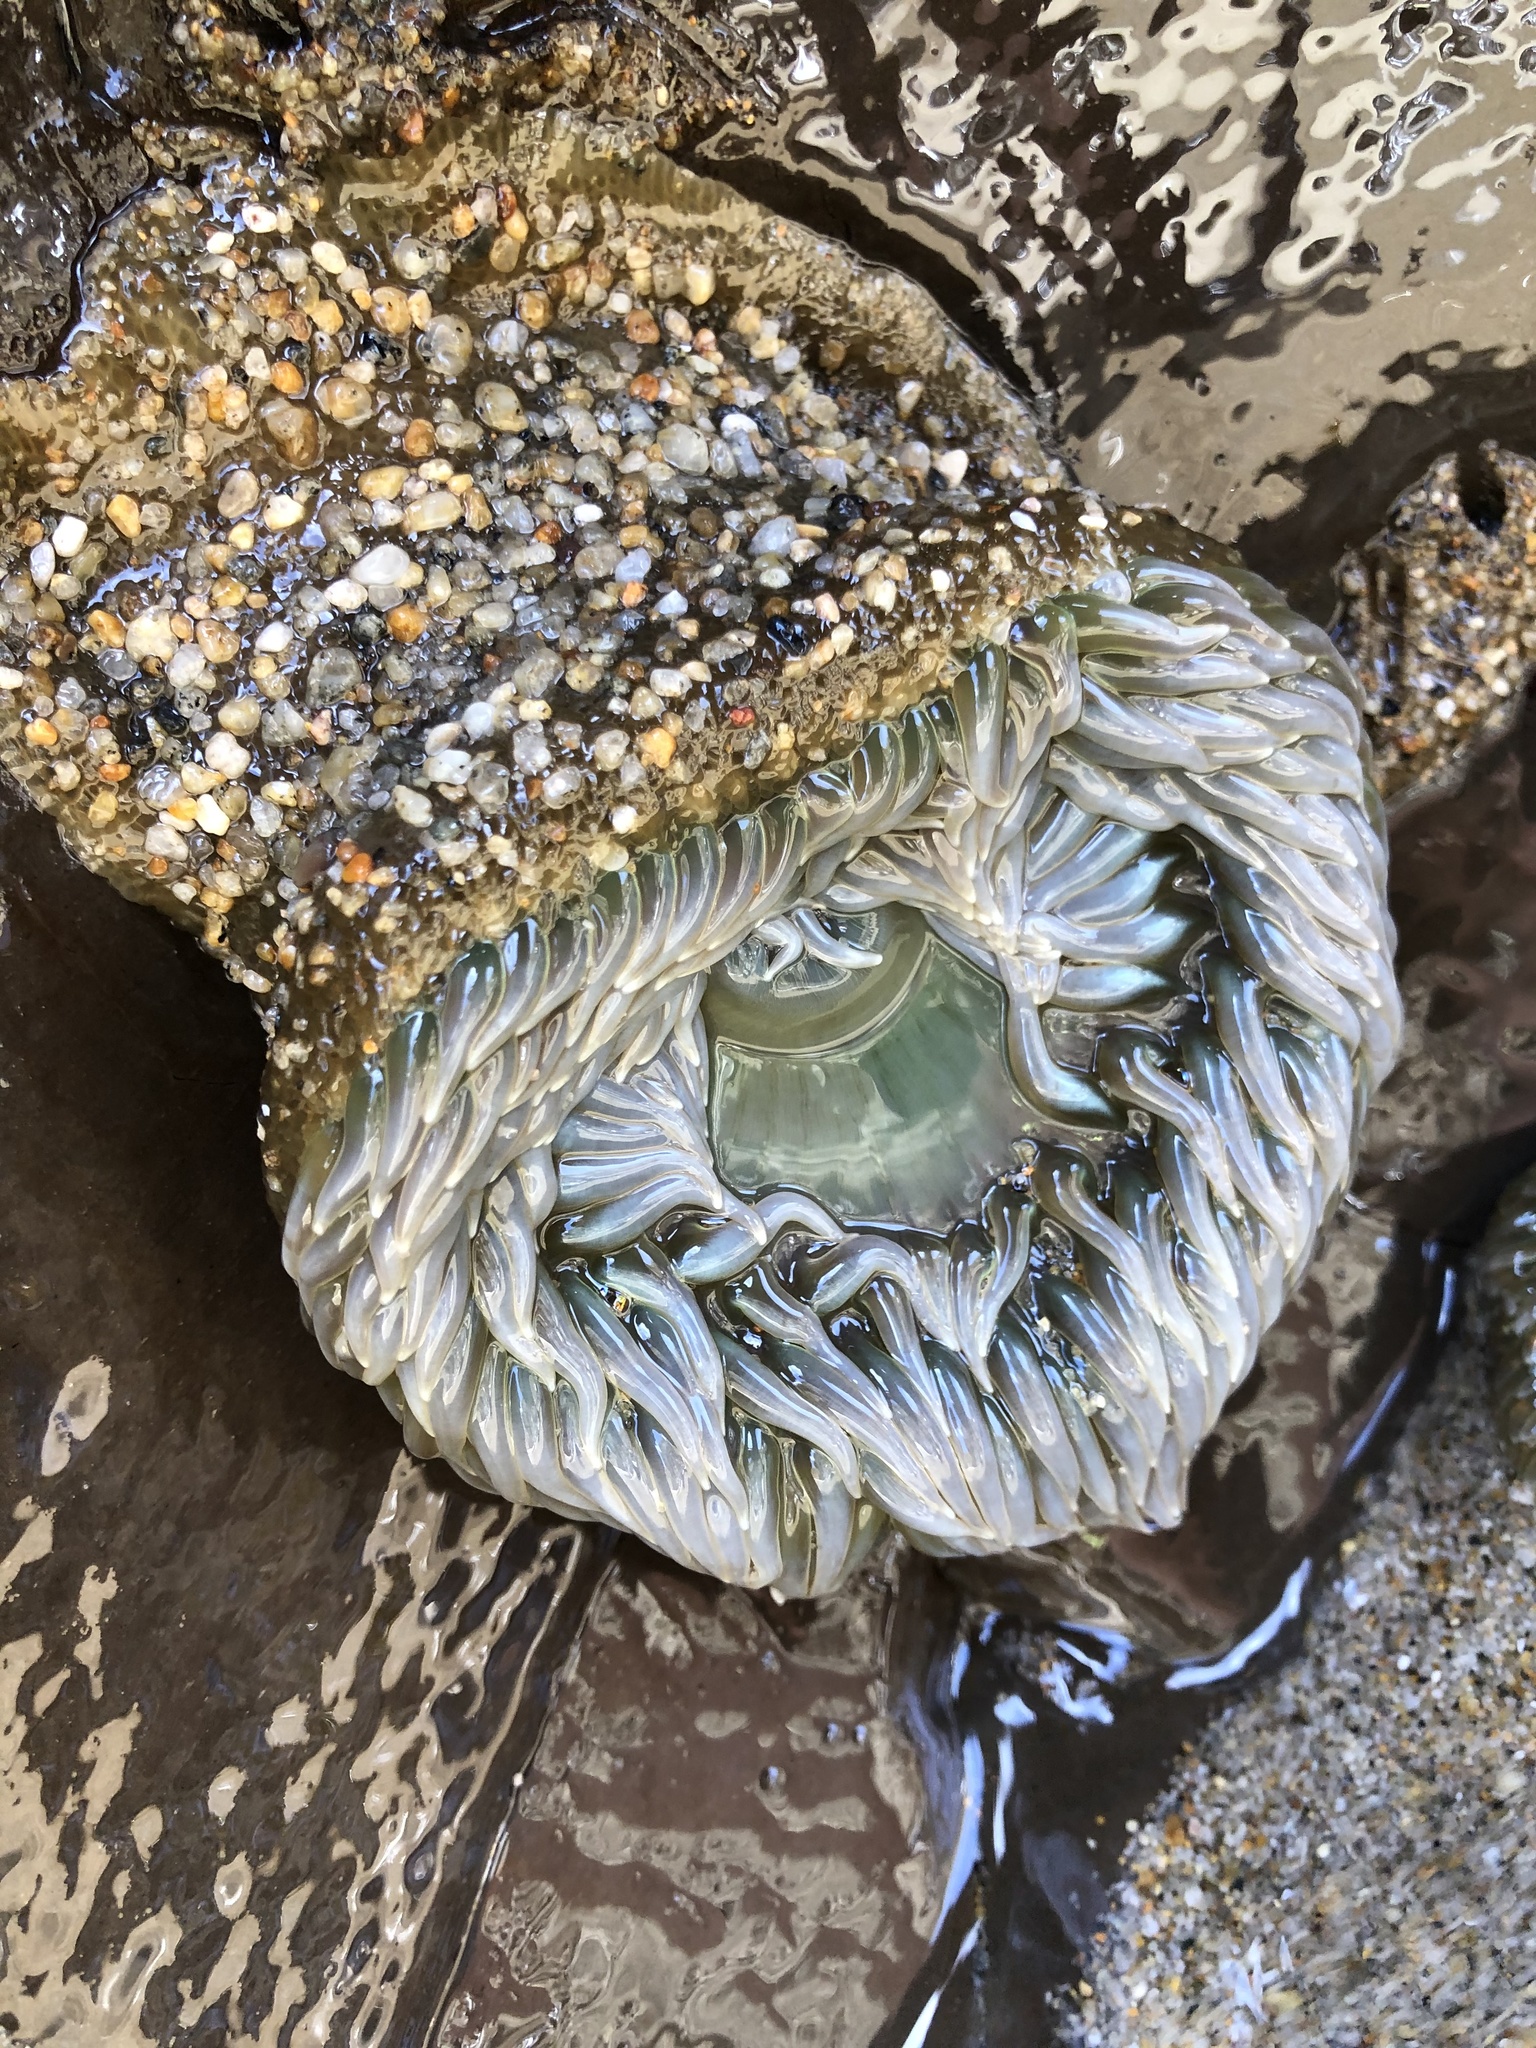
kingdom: Animalia
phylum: Cnidaria
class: Anthozoa
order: Actiniaria
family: Actiniidae
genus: Anthopleura
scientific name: Anthopleura xanthogrammica
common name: Giant green anemone
